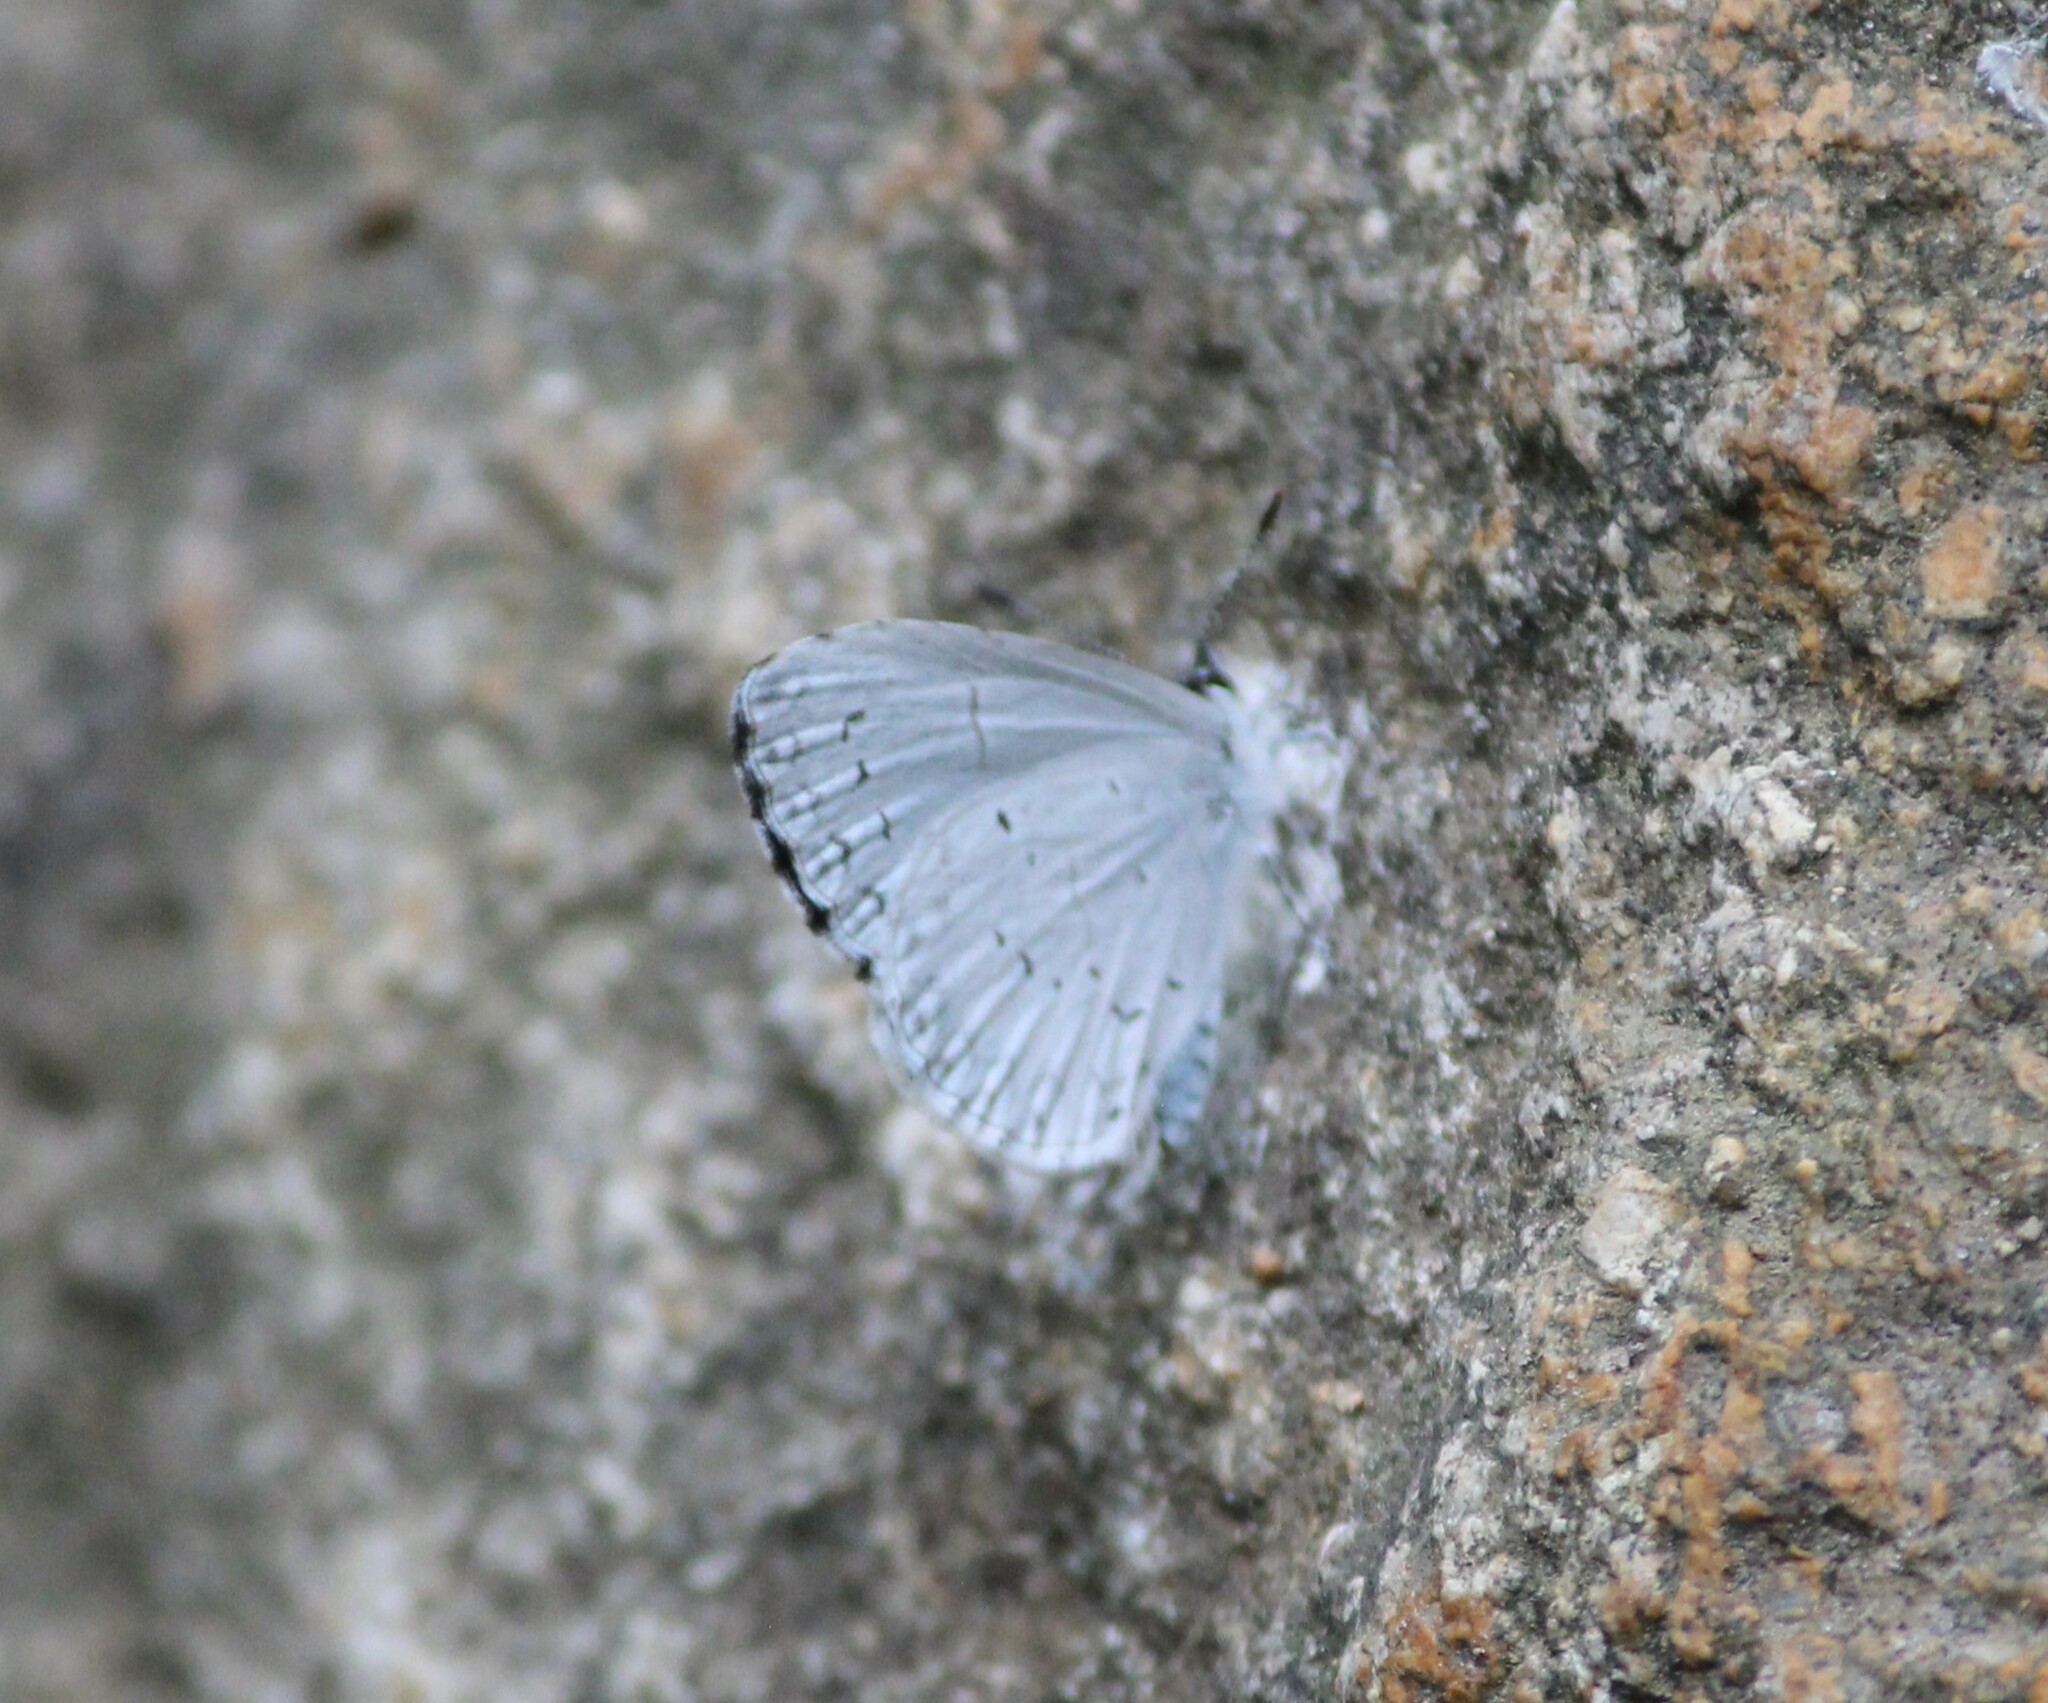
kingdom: Animalia
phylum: Arthropoda
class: Insecta
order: Lepidoptera
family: Lycaenidae
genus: Cyaniris
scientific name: Cyaniris neglecta
